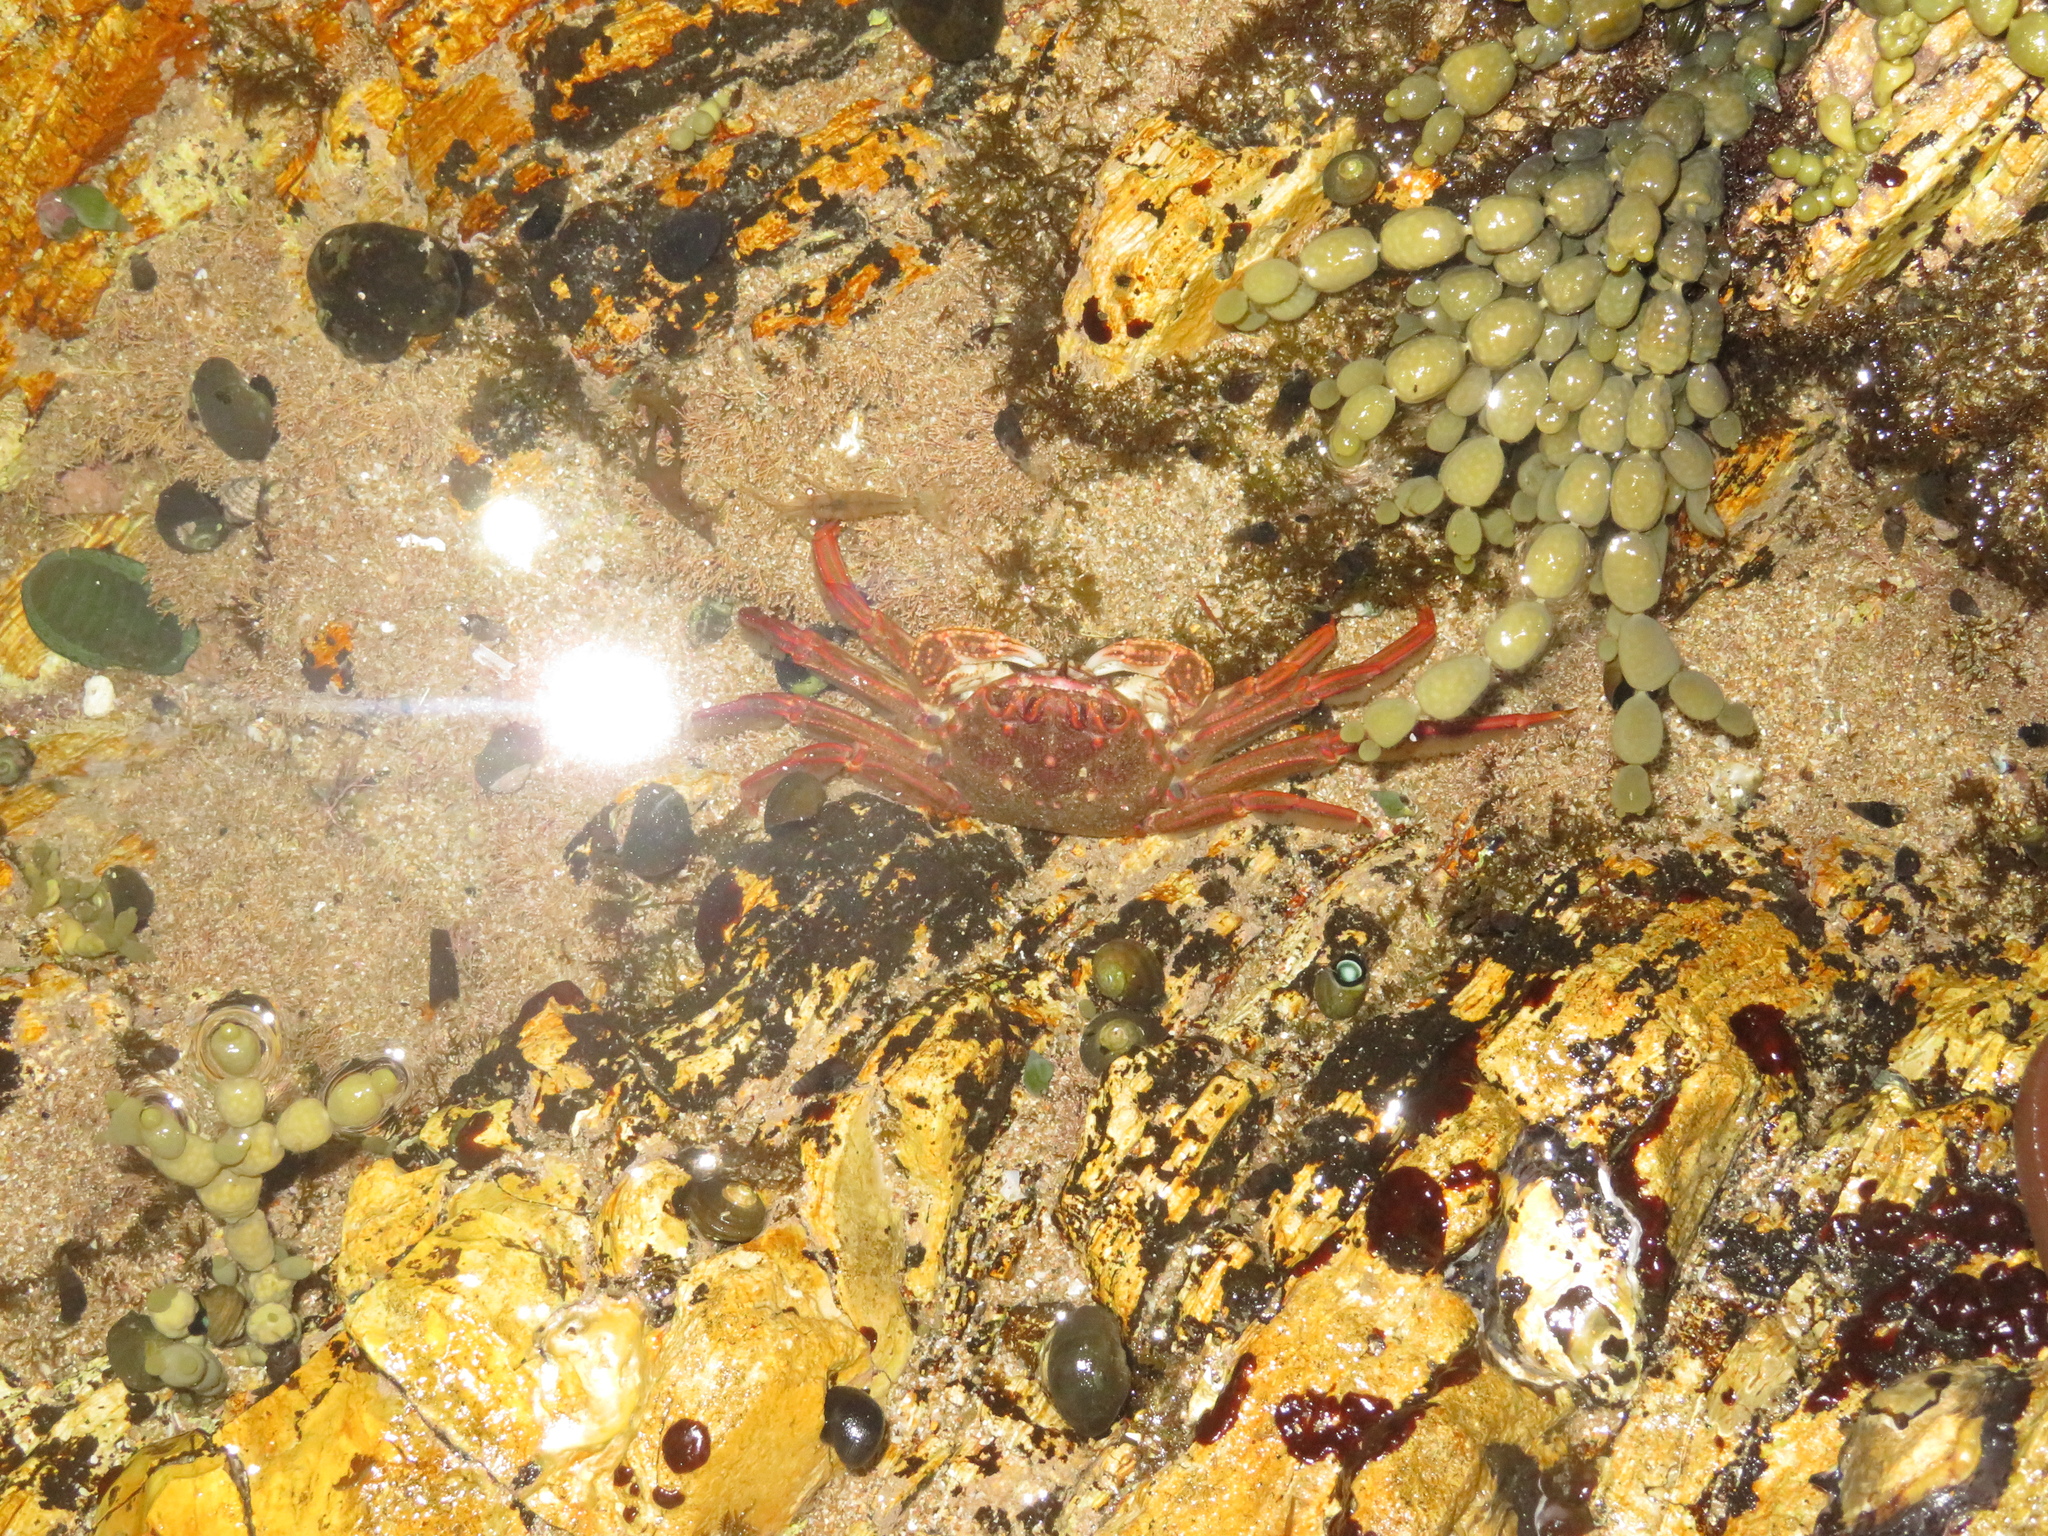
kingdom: Animalia
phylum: Arthropoda
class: Malacostraca
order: Decapoda
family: Plagusiidae
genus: Guinusia
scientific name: Guinusia chabrus
